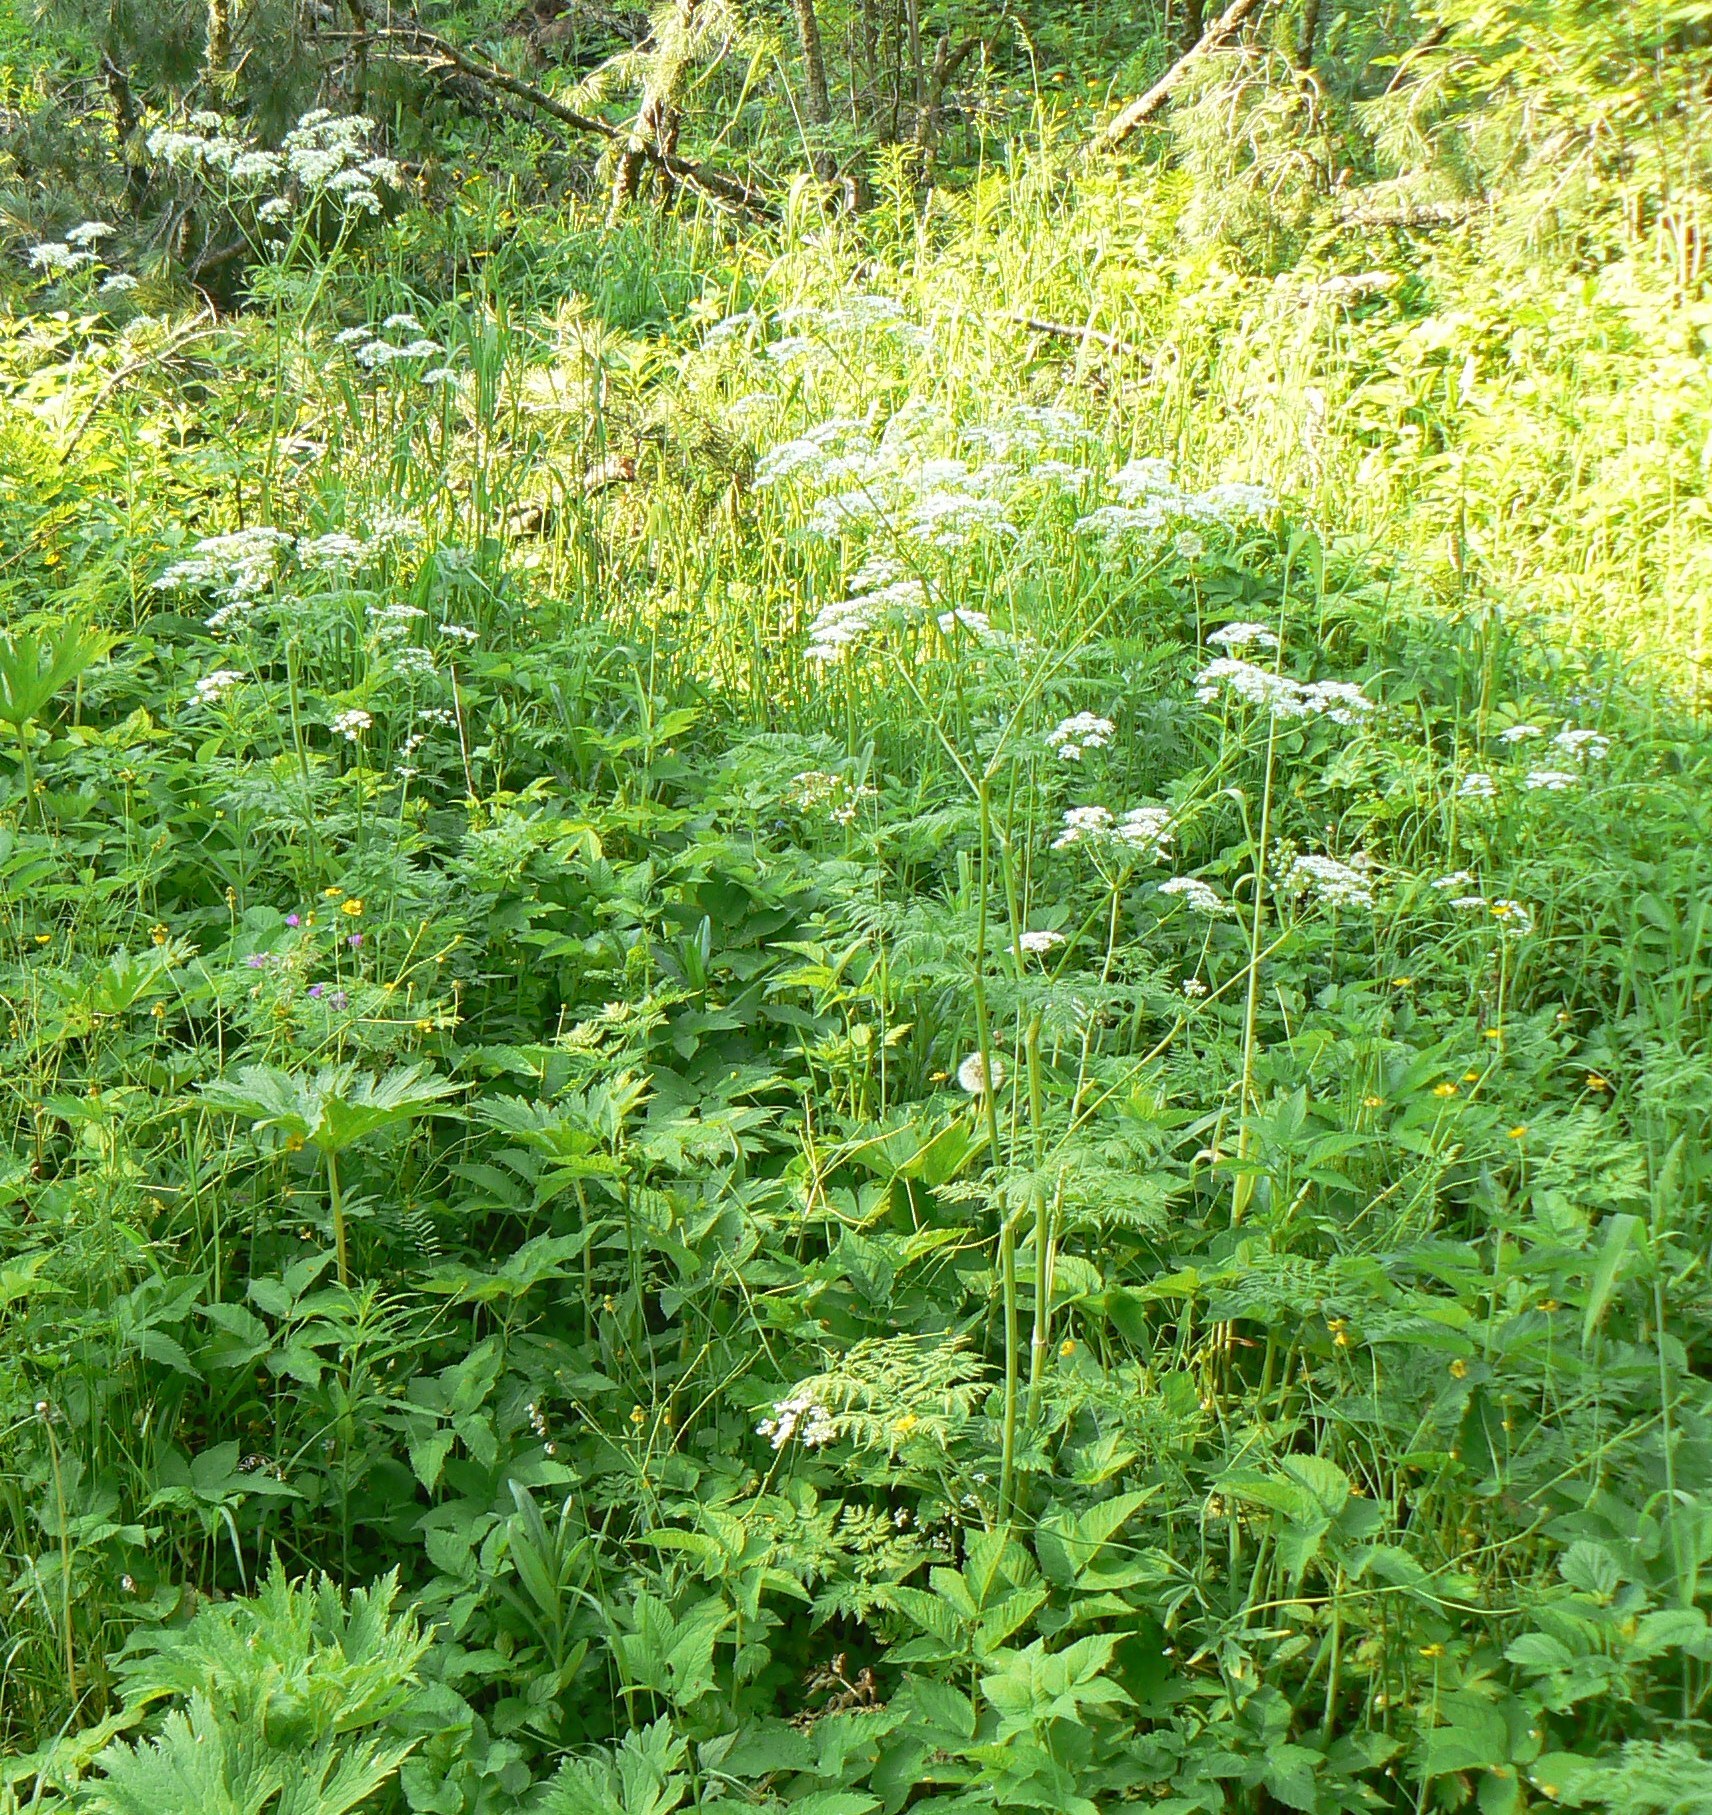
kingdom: Plantae
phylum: Tracheophyta
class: Magnoliopsida
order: Apiales
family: Apiaceae
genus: Anthriscus
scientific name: Anthriscus sylvestris
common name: Cow parsley
